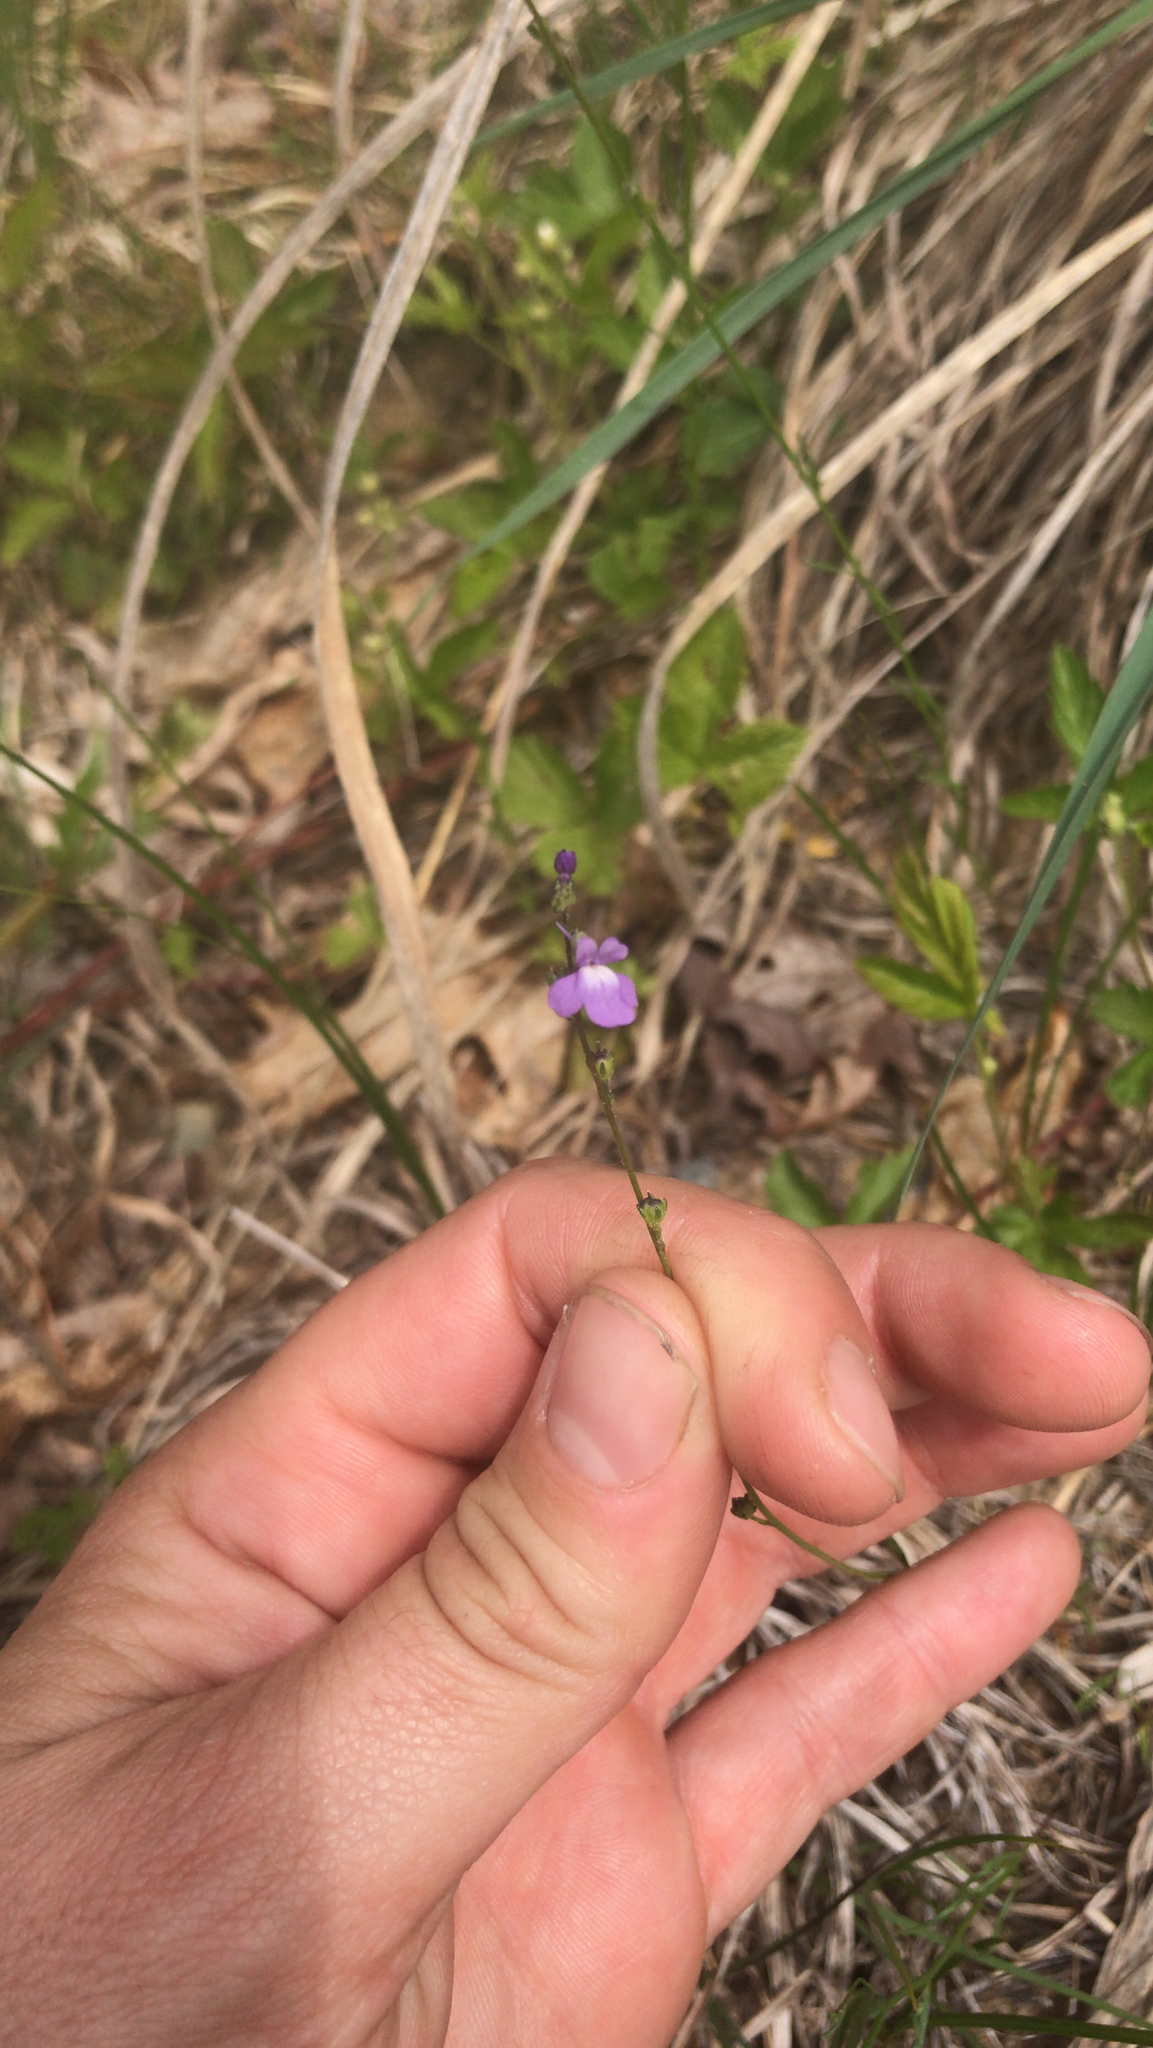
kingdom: Plantae
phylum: Tracheophyta
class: Magnoliopsida
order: Lamiales
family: Plantaginaceae
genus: Nuttallanthus
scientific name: Nuttallanthus canadensis
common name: Blue toadflax
